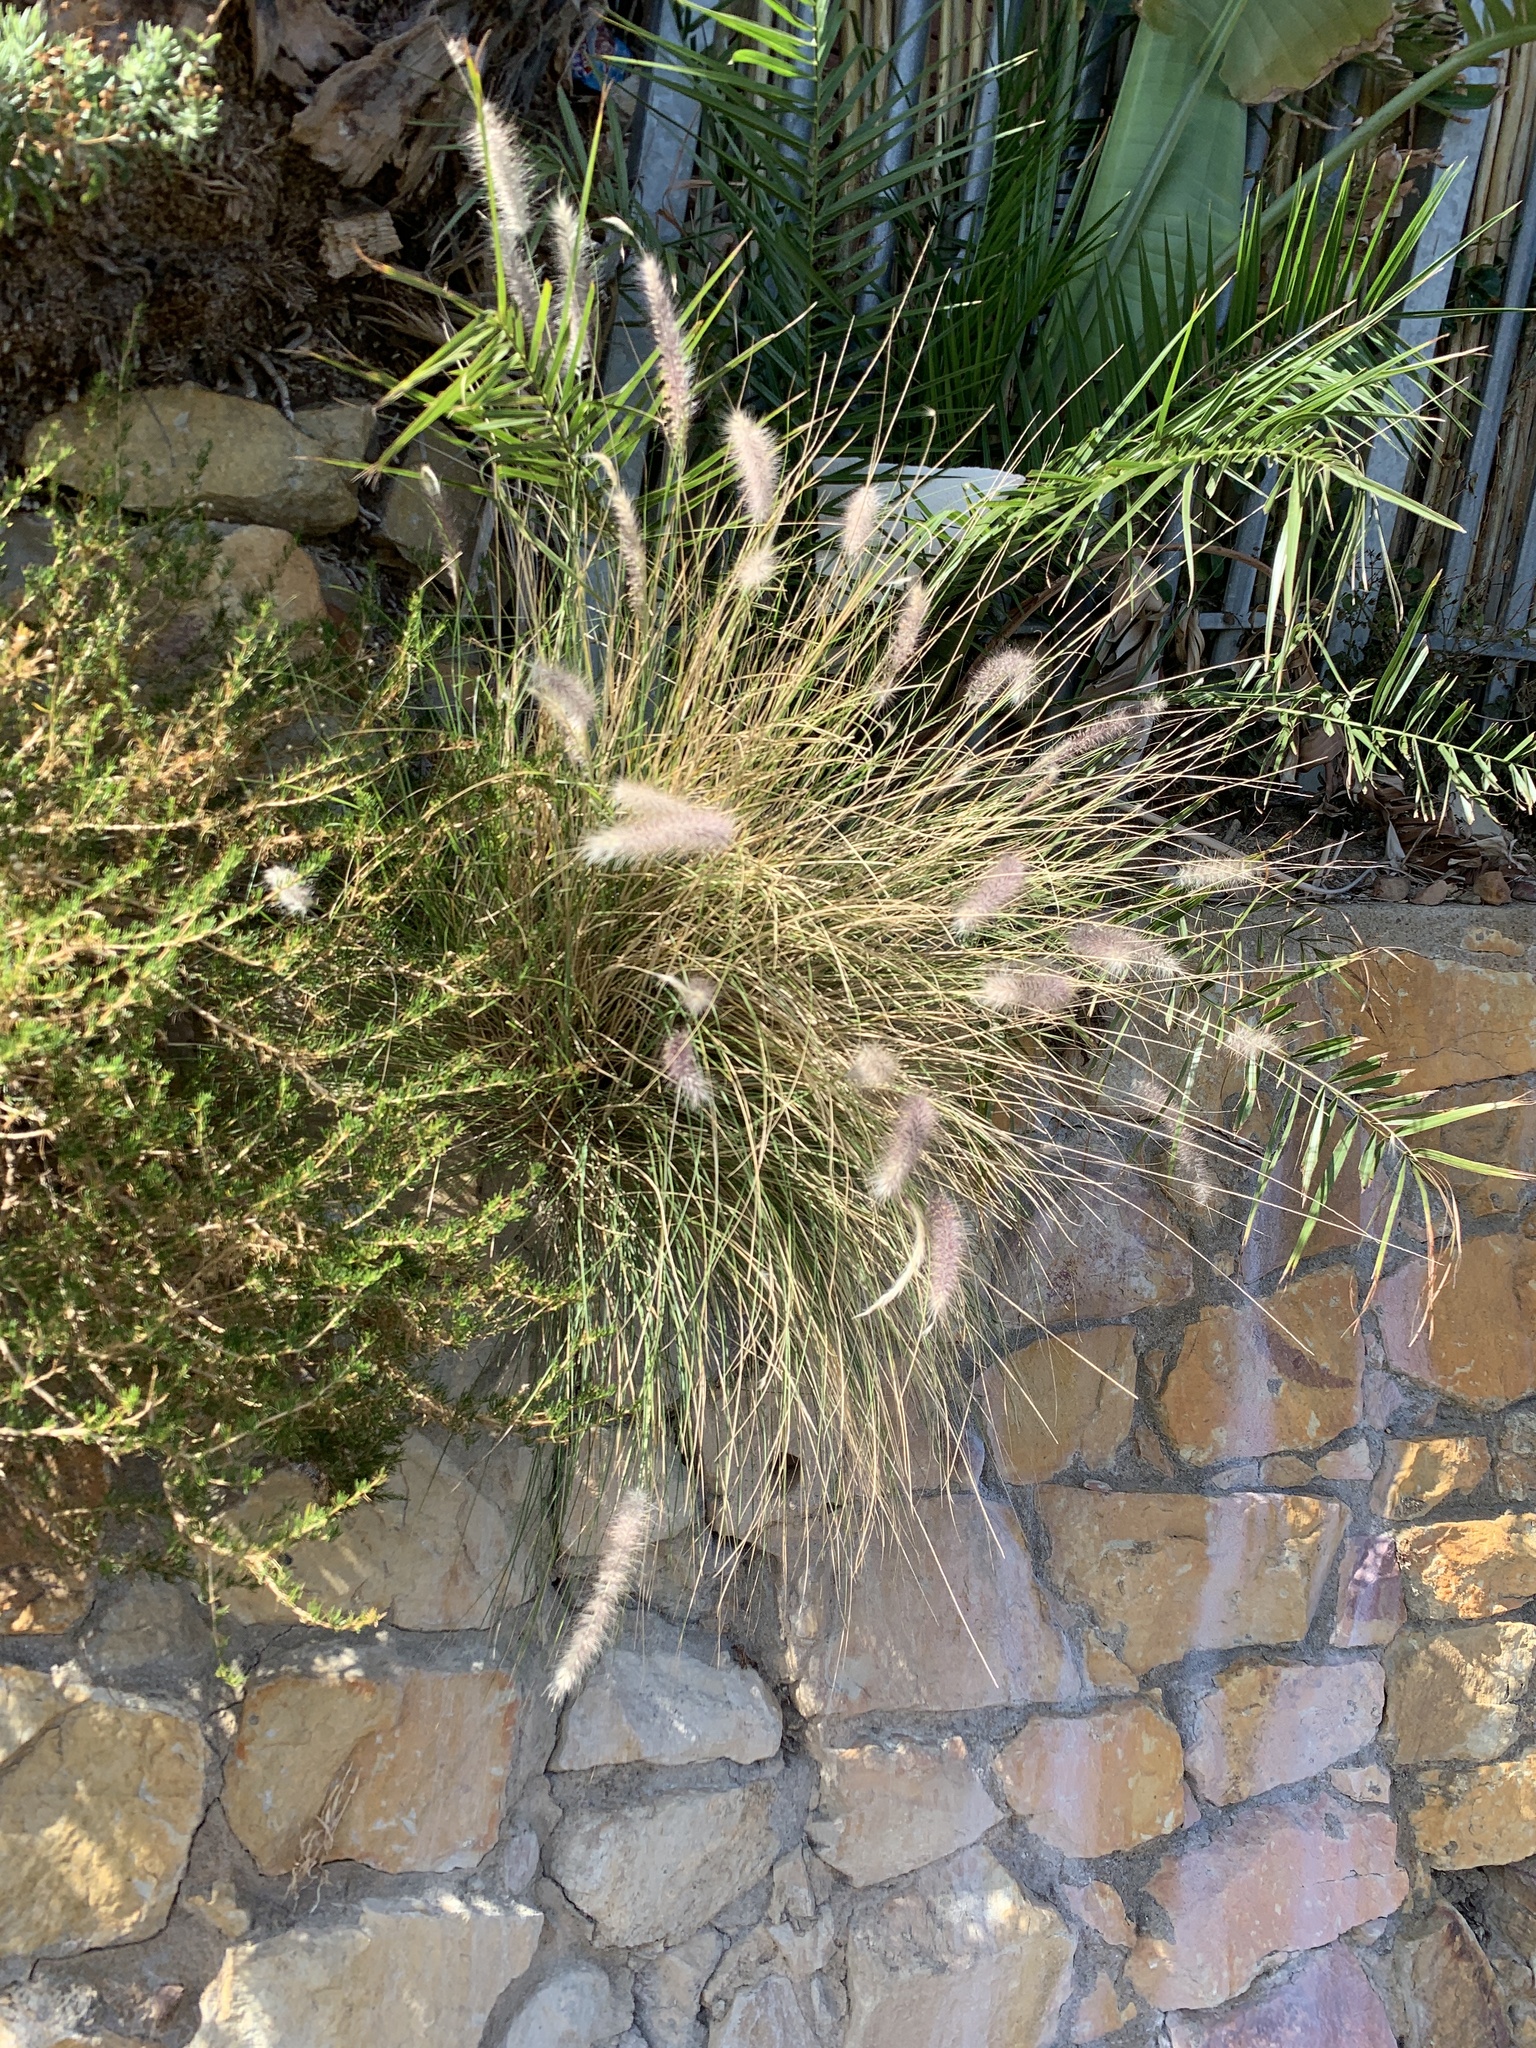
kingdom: Plantae
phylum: Tracheophyta
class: Liliopsida
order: Poales
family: Poaceae
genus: Cenchrus
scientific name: Cenchrus setaceus
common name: Crimson fountaingrass
